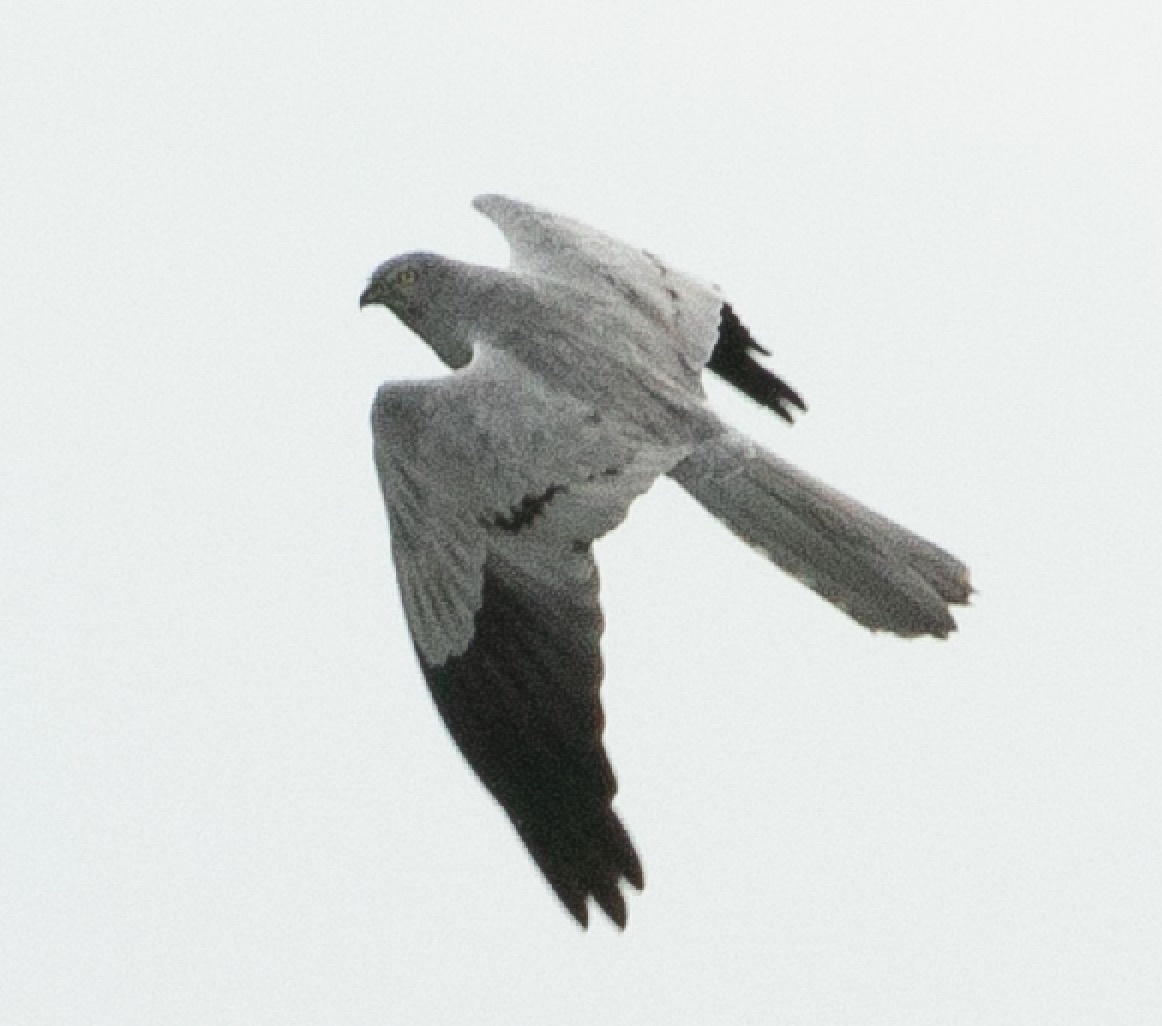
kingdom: Animalia
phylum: Chordata
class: Aves
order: Accipitriformes
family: Accipitridae
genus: Circus
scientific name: Circus pygargus
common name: Montagu's harrier
